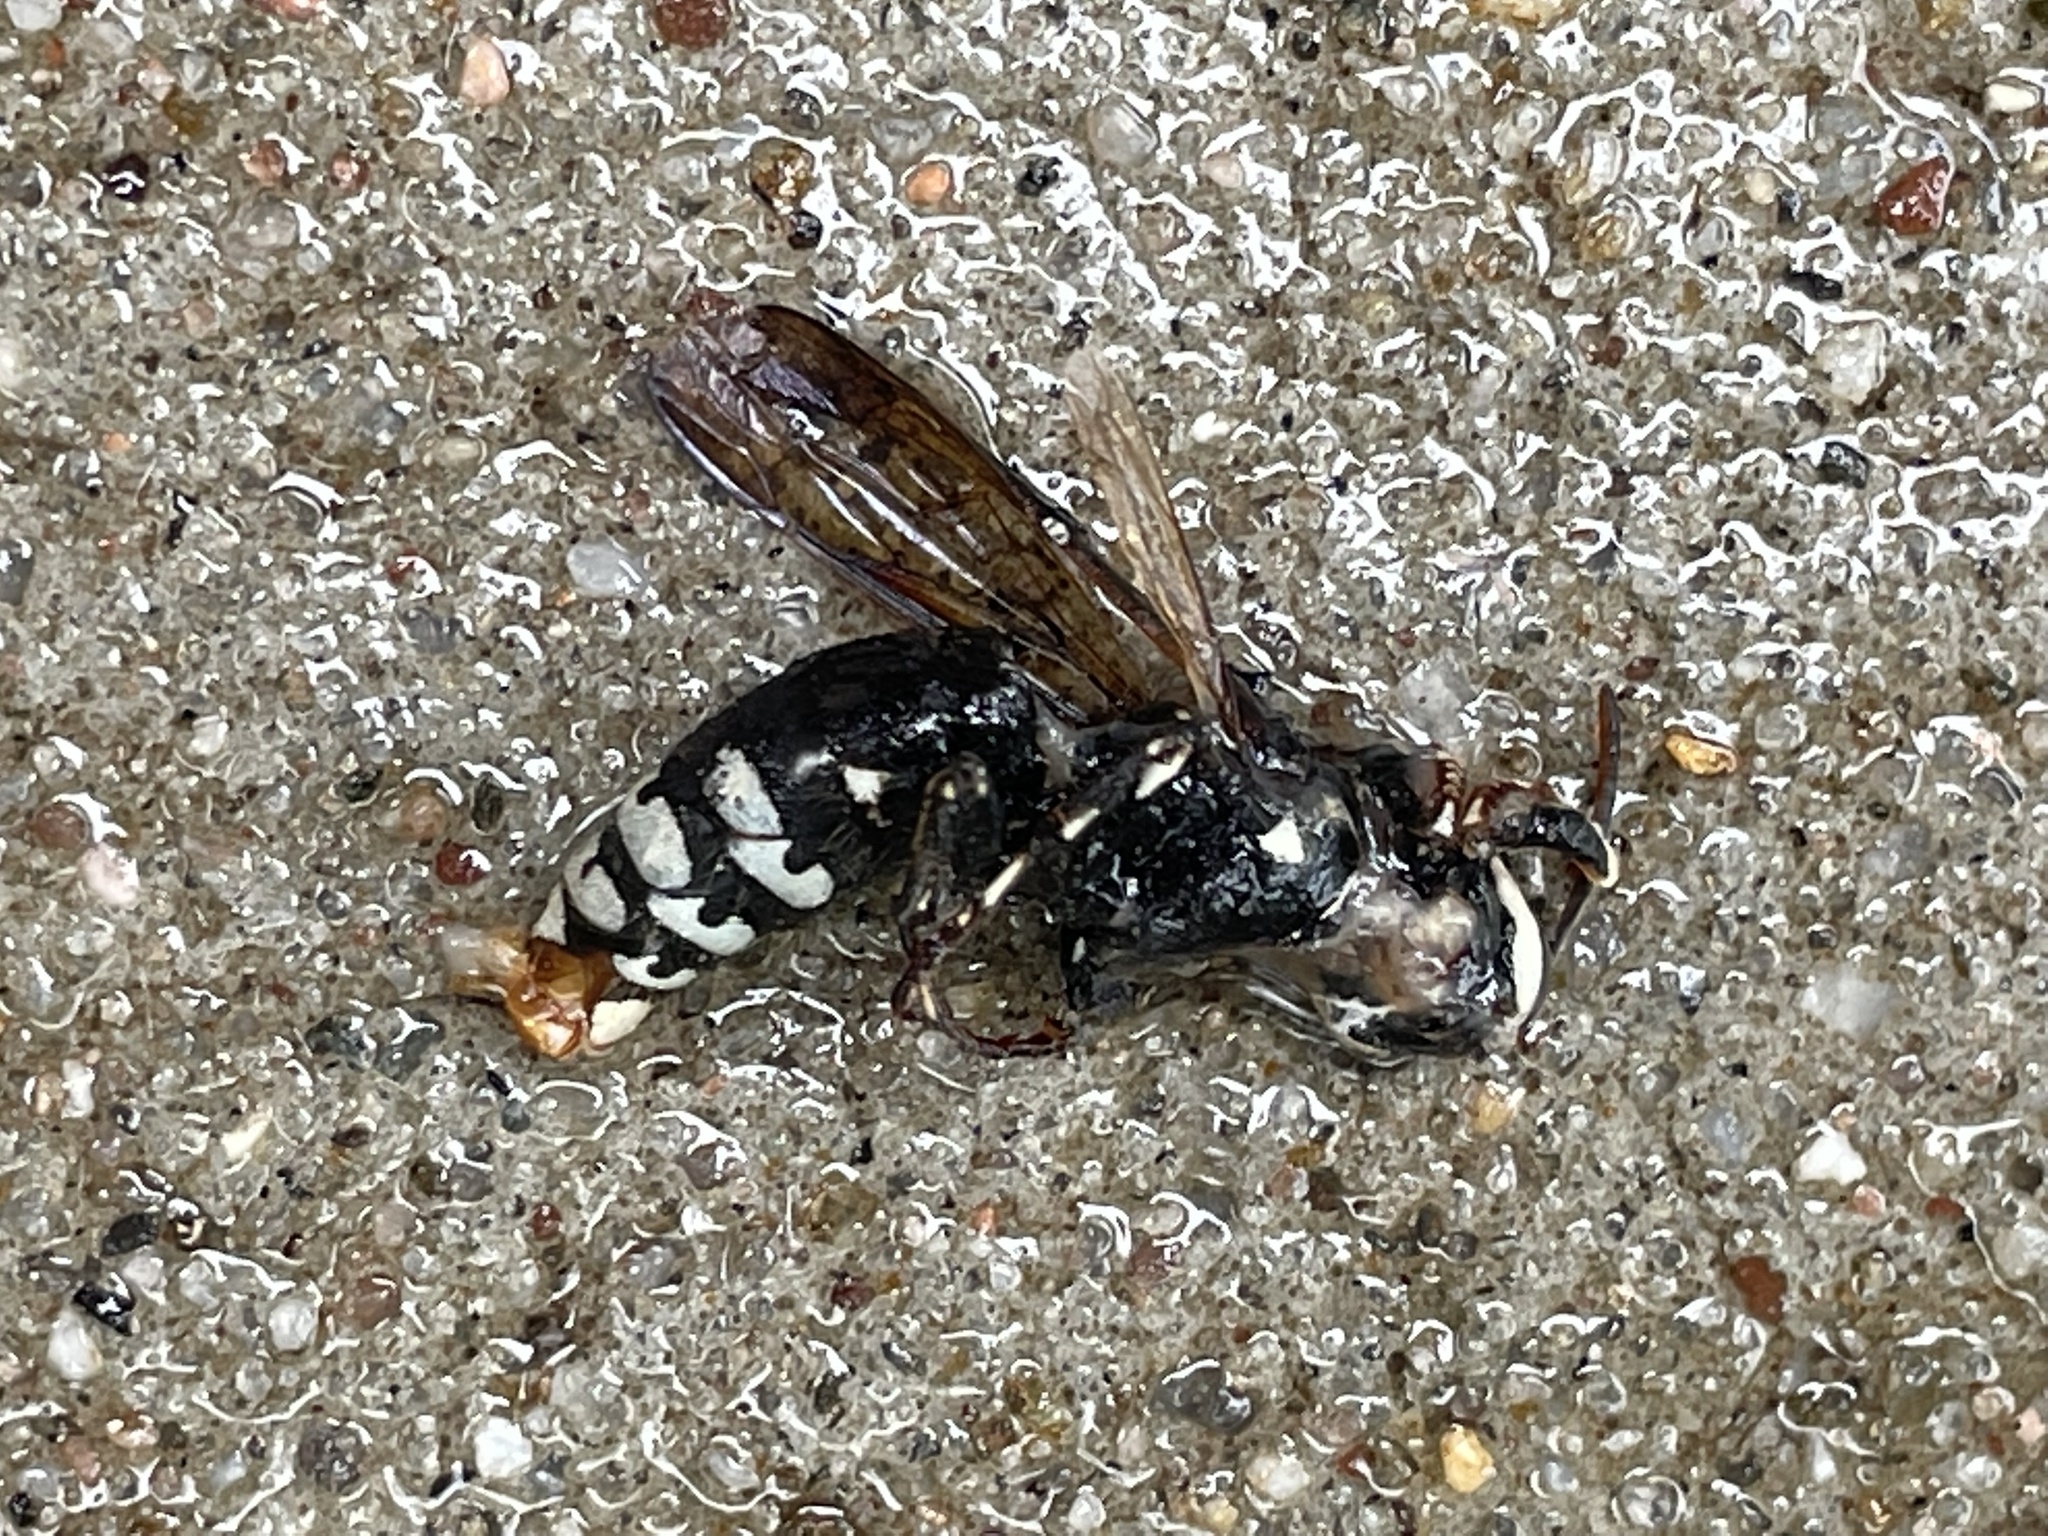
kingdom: Animalia
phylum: Arthropoda
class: Insecta
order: Hymenoptera
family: Vespidae
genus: Dolichovespula
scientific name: Dolichovespula maculata
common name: Bald-faced hornet
